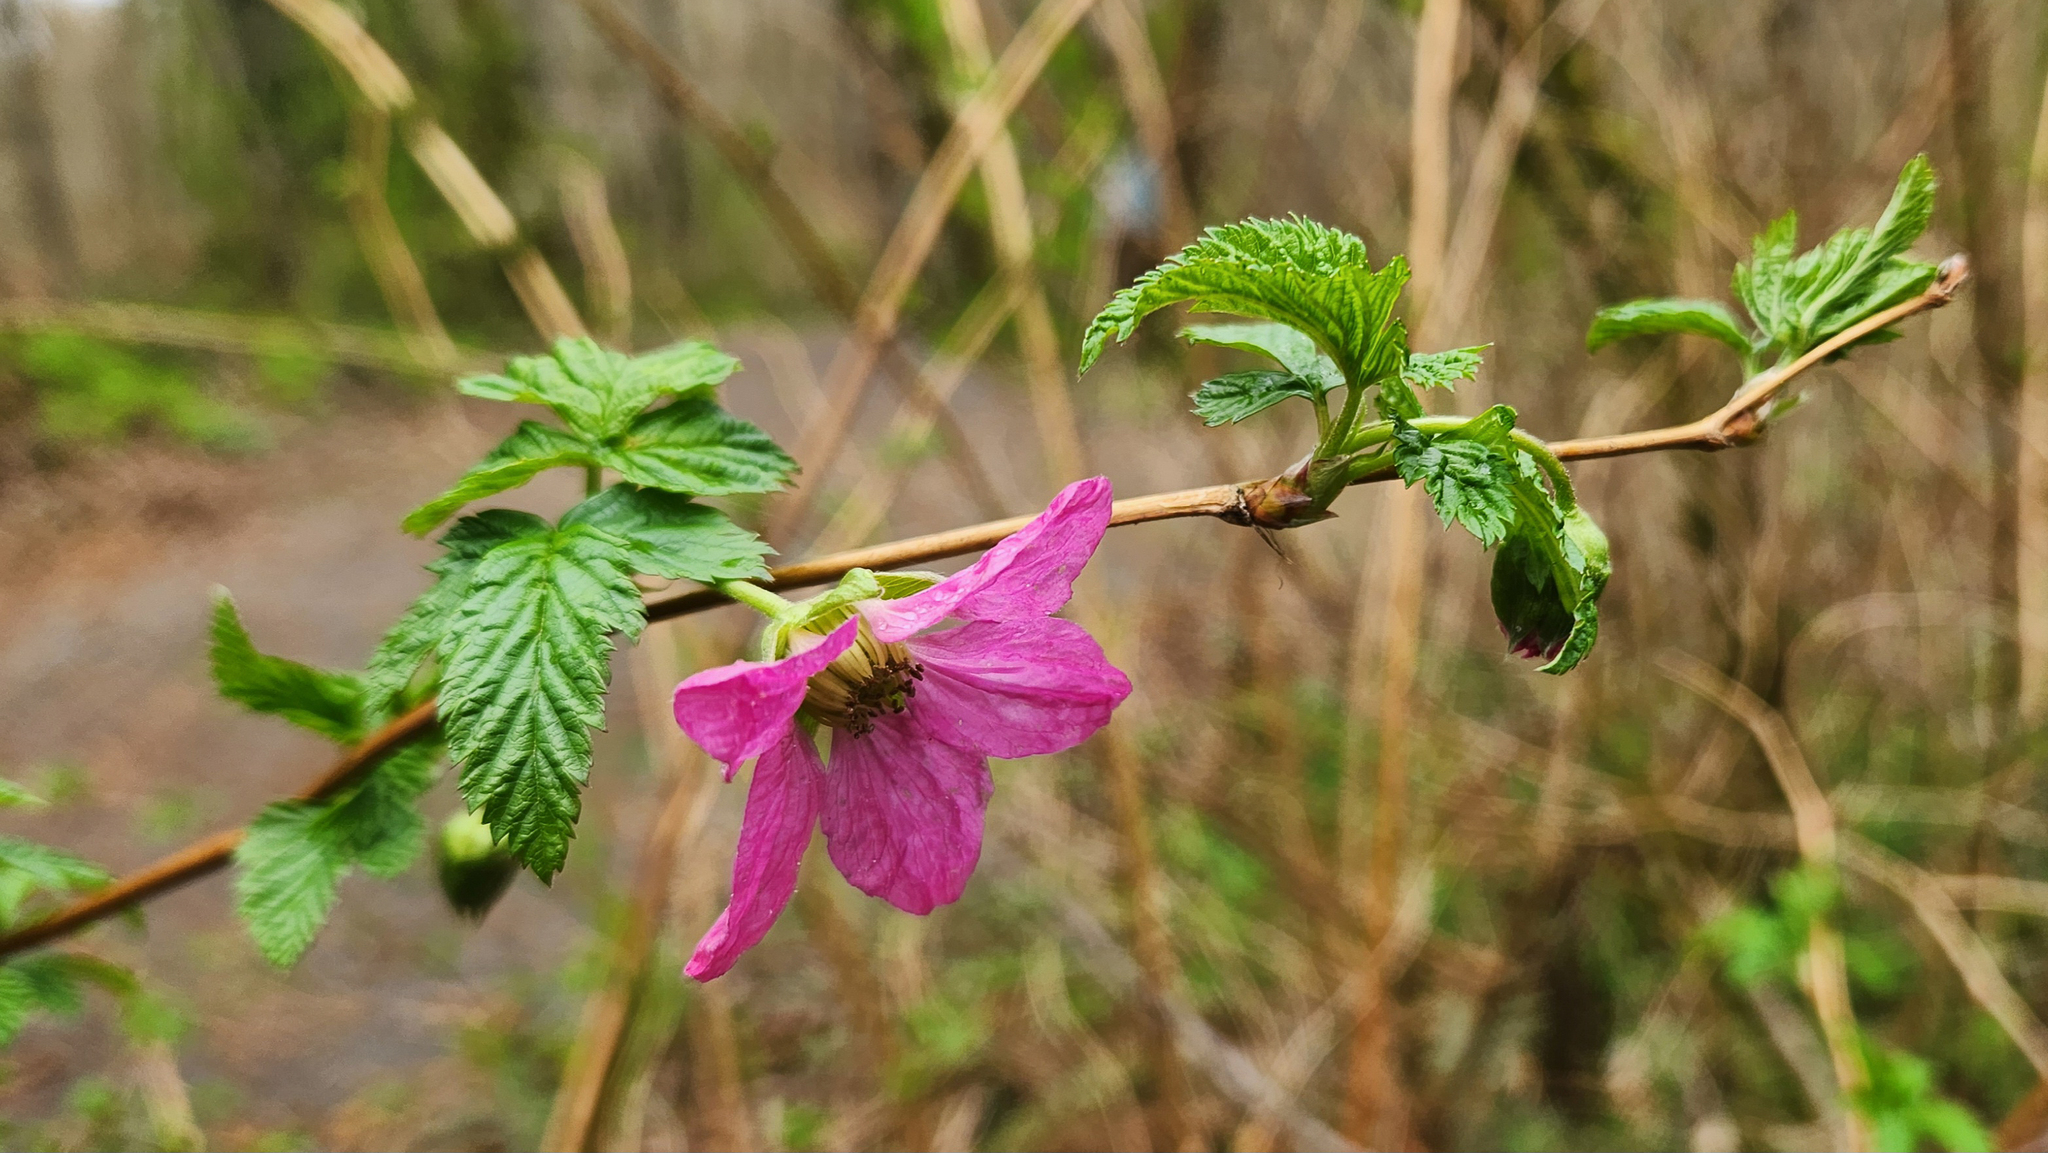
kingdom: Plantae
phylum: Tracheophyta
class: Magnoliopsida
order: Rosales
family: Rosaceae
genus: Rubus
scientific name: Rubus spectabilis
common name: Salmonberry
